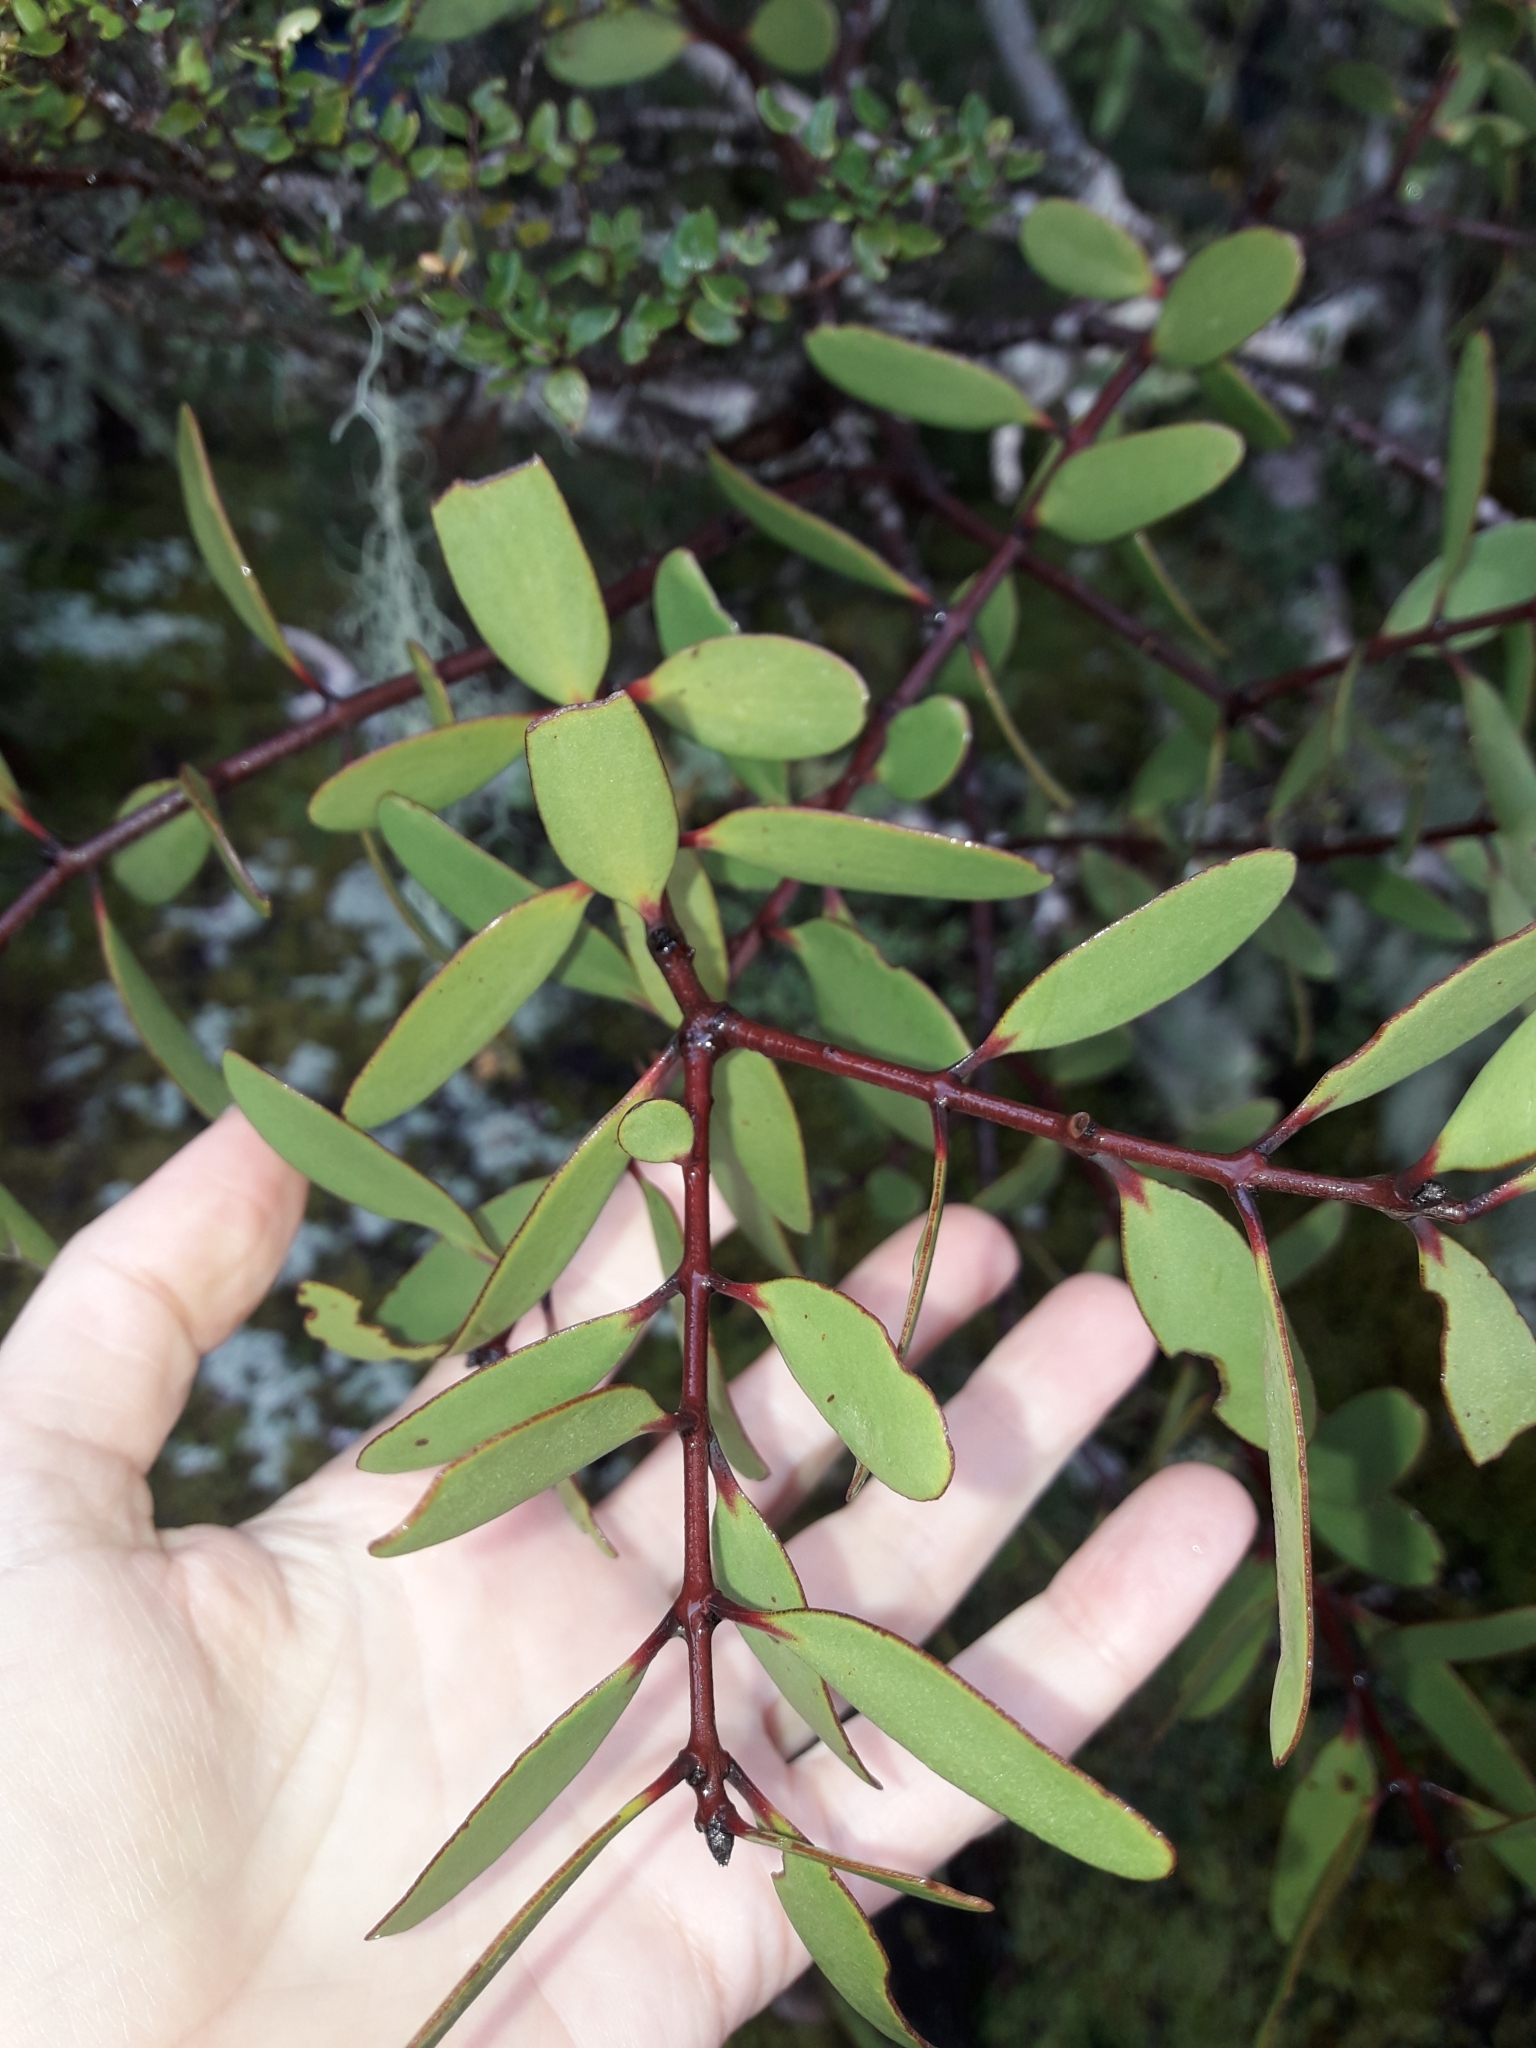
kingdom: Plantae
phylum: Tracheophyta
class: Magnoliopsida
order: Santalales
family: Loranthaceae
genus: Alepis
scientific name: Alepis flavida
